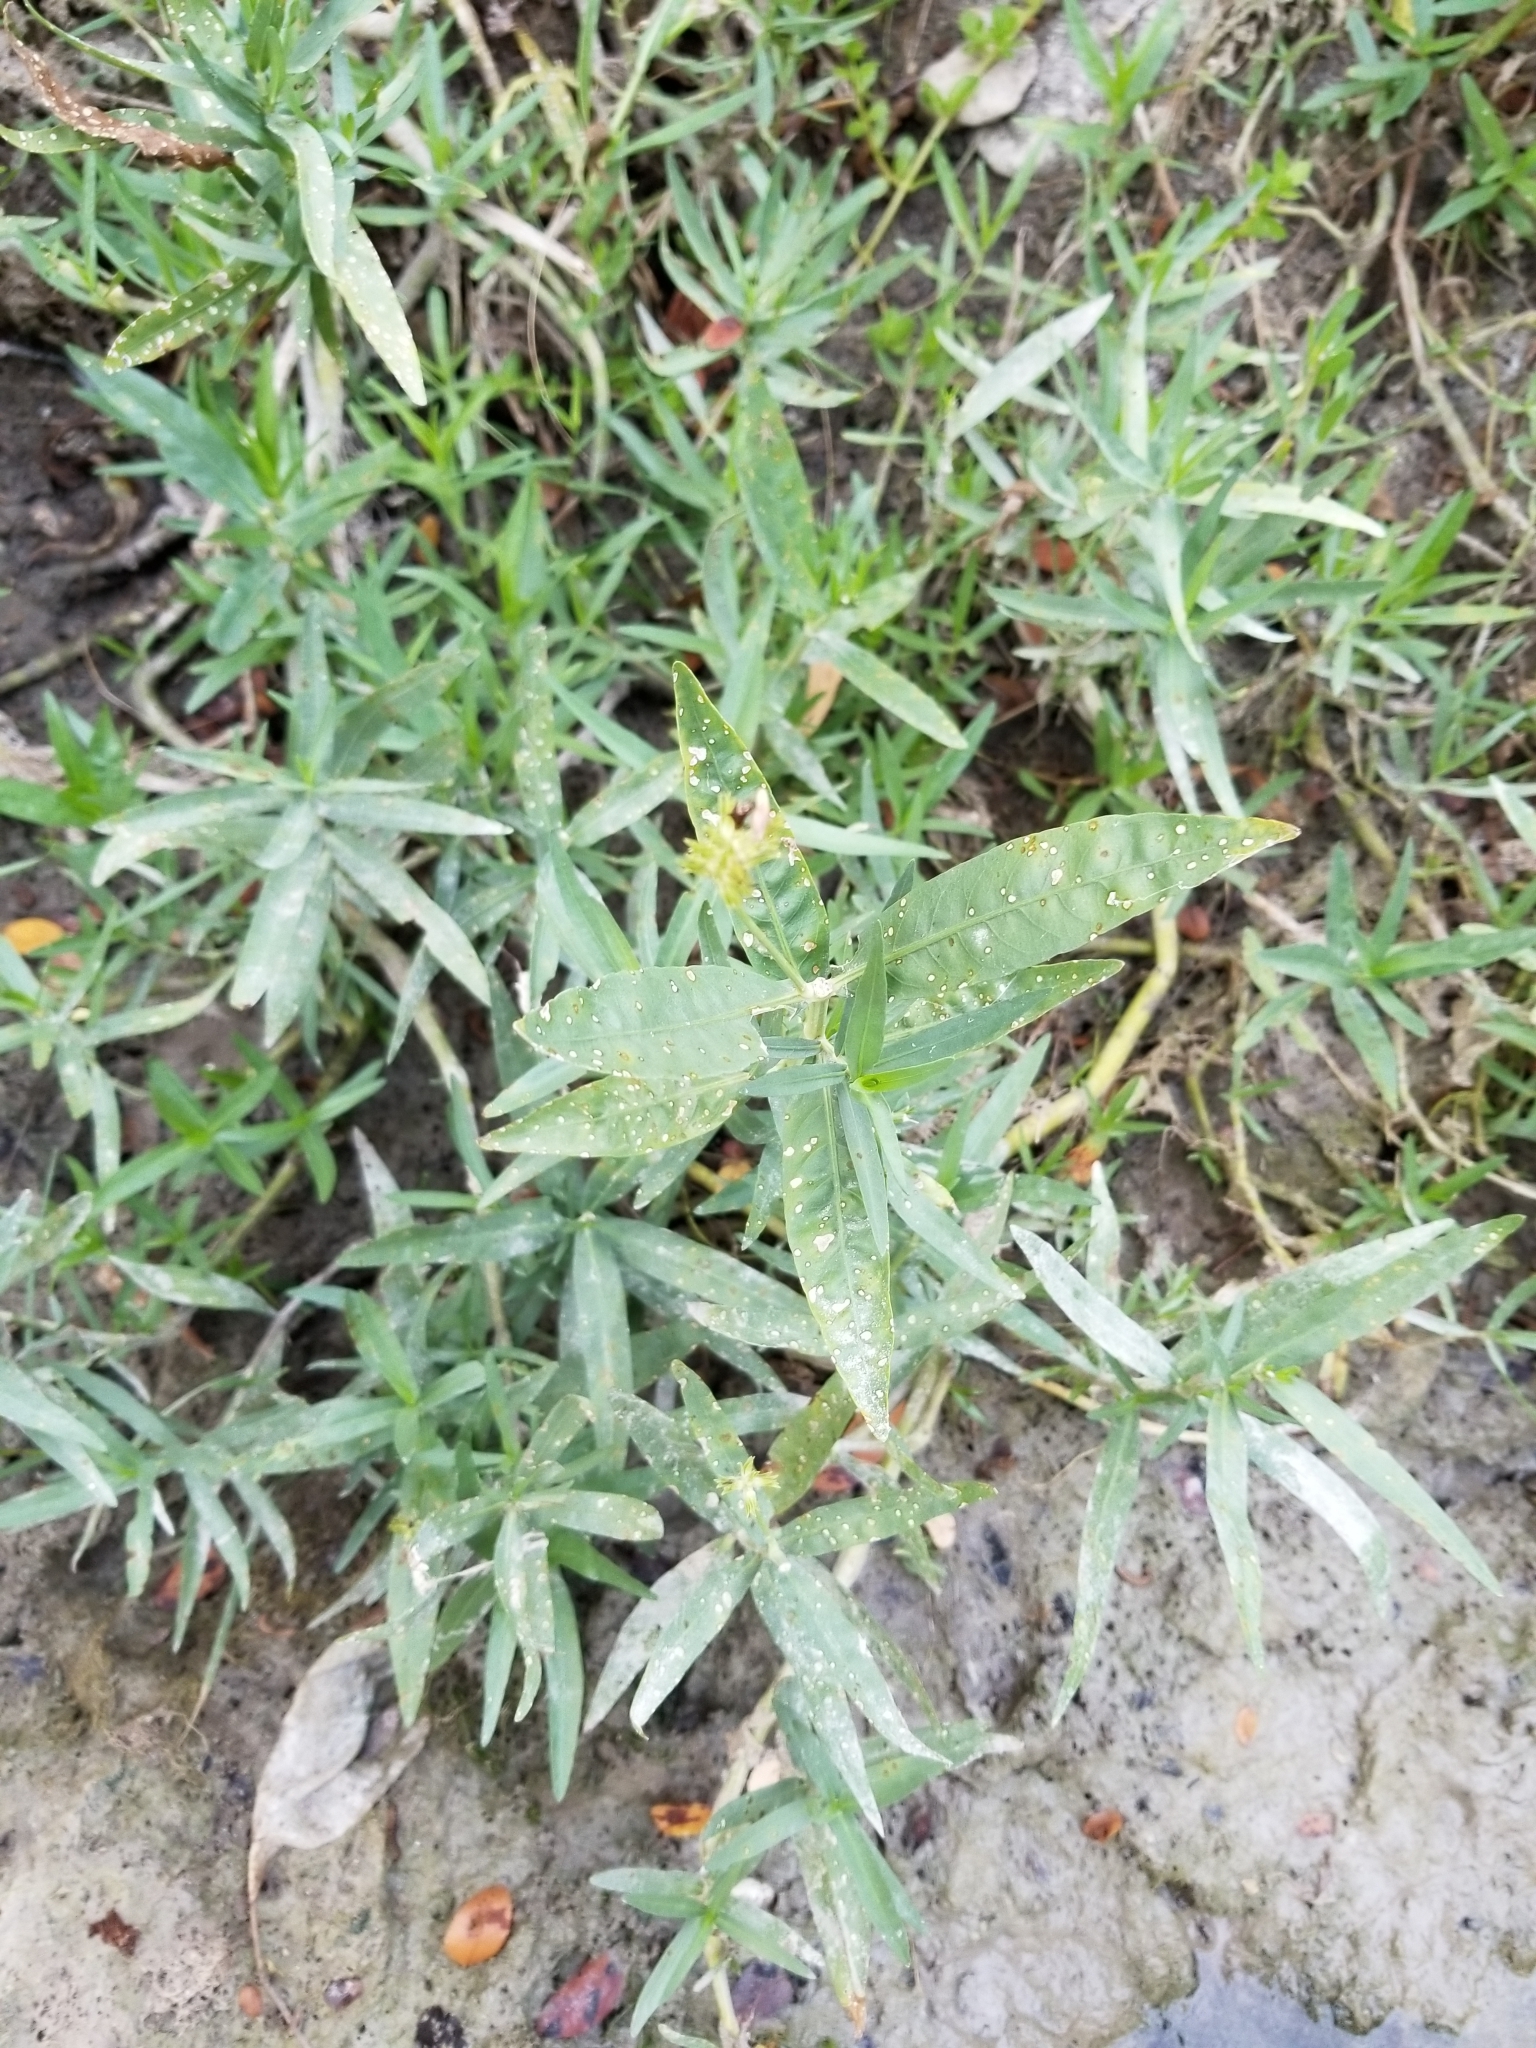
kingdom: Plantae
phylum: Tracheophyta
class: Magnoliopsida
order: Lamiales
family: Acanthaceae
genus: Dianthera
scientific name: Dianthera americana
